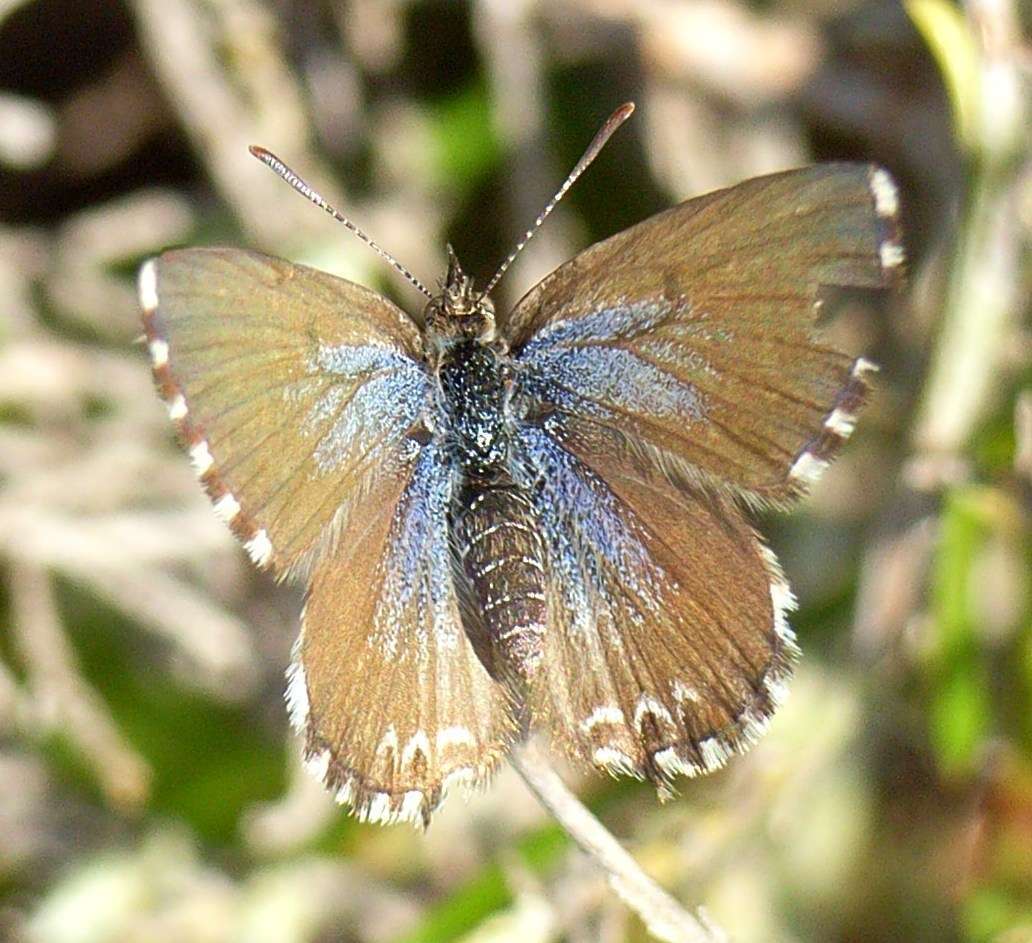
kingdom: Animalia
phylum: Arthropoda
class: Insecta
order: Lepidoptera
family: Lycaenidae
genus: Theclinesthes
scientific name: Theclinesthes serpentata
